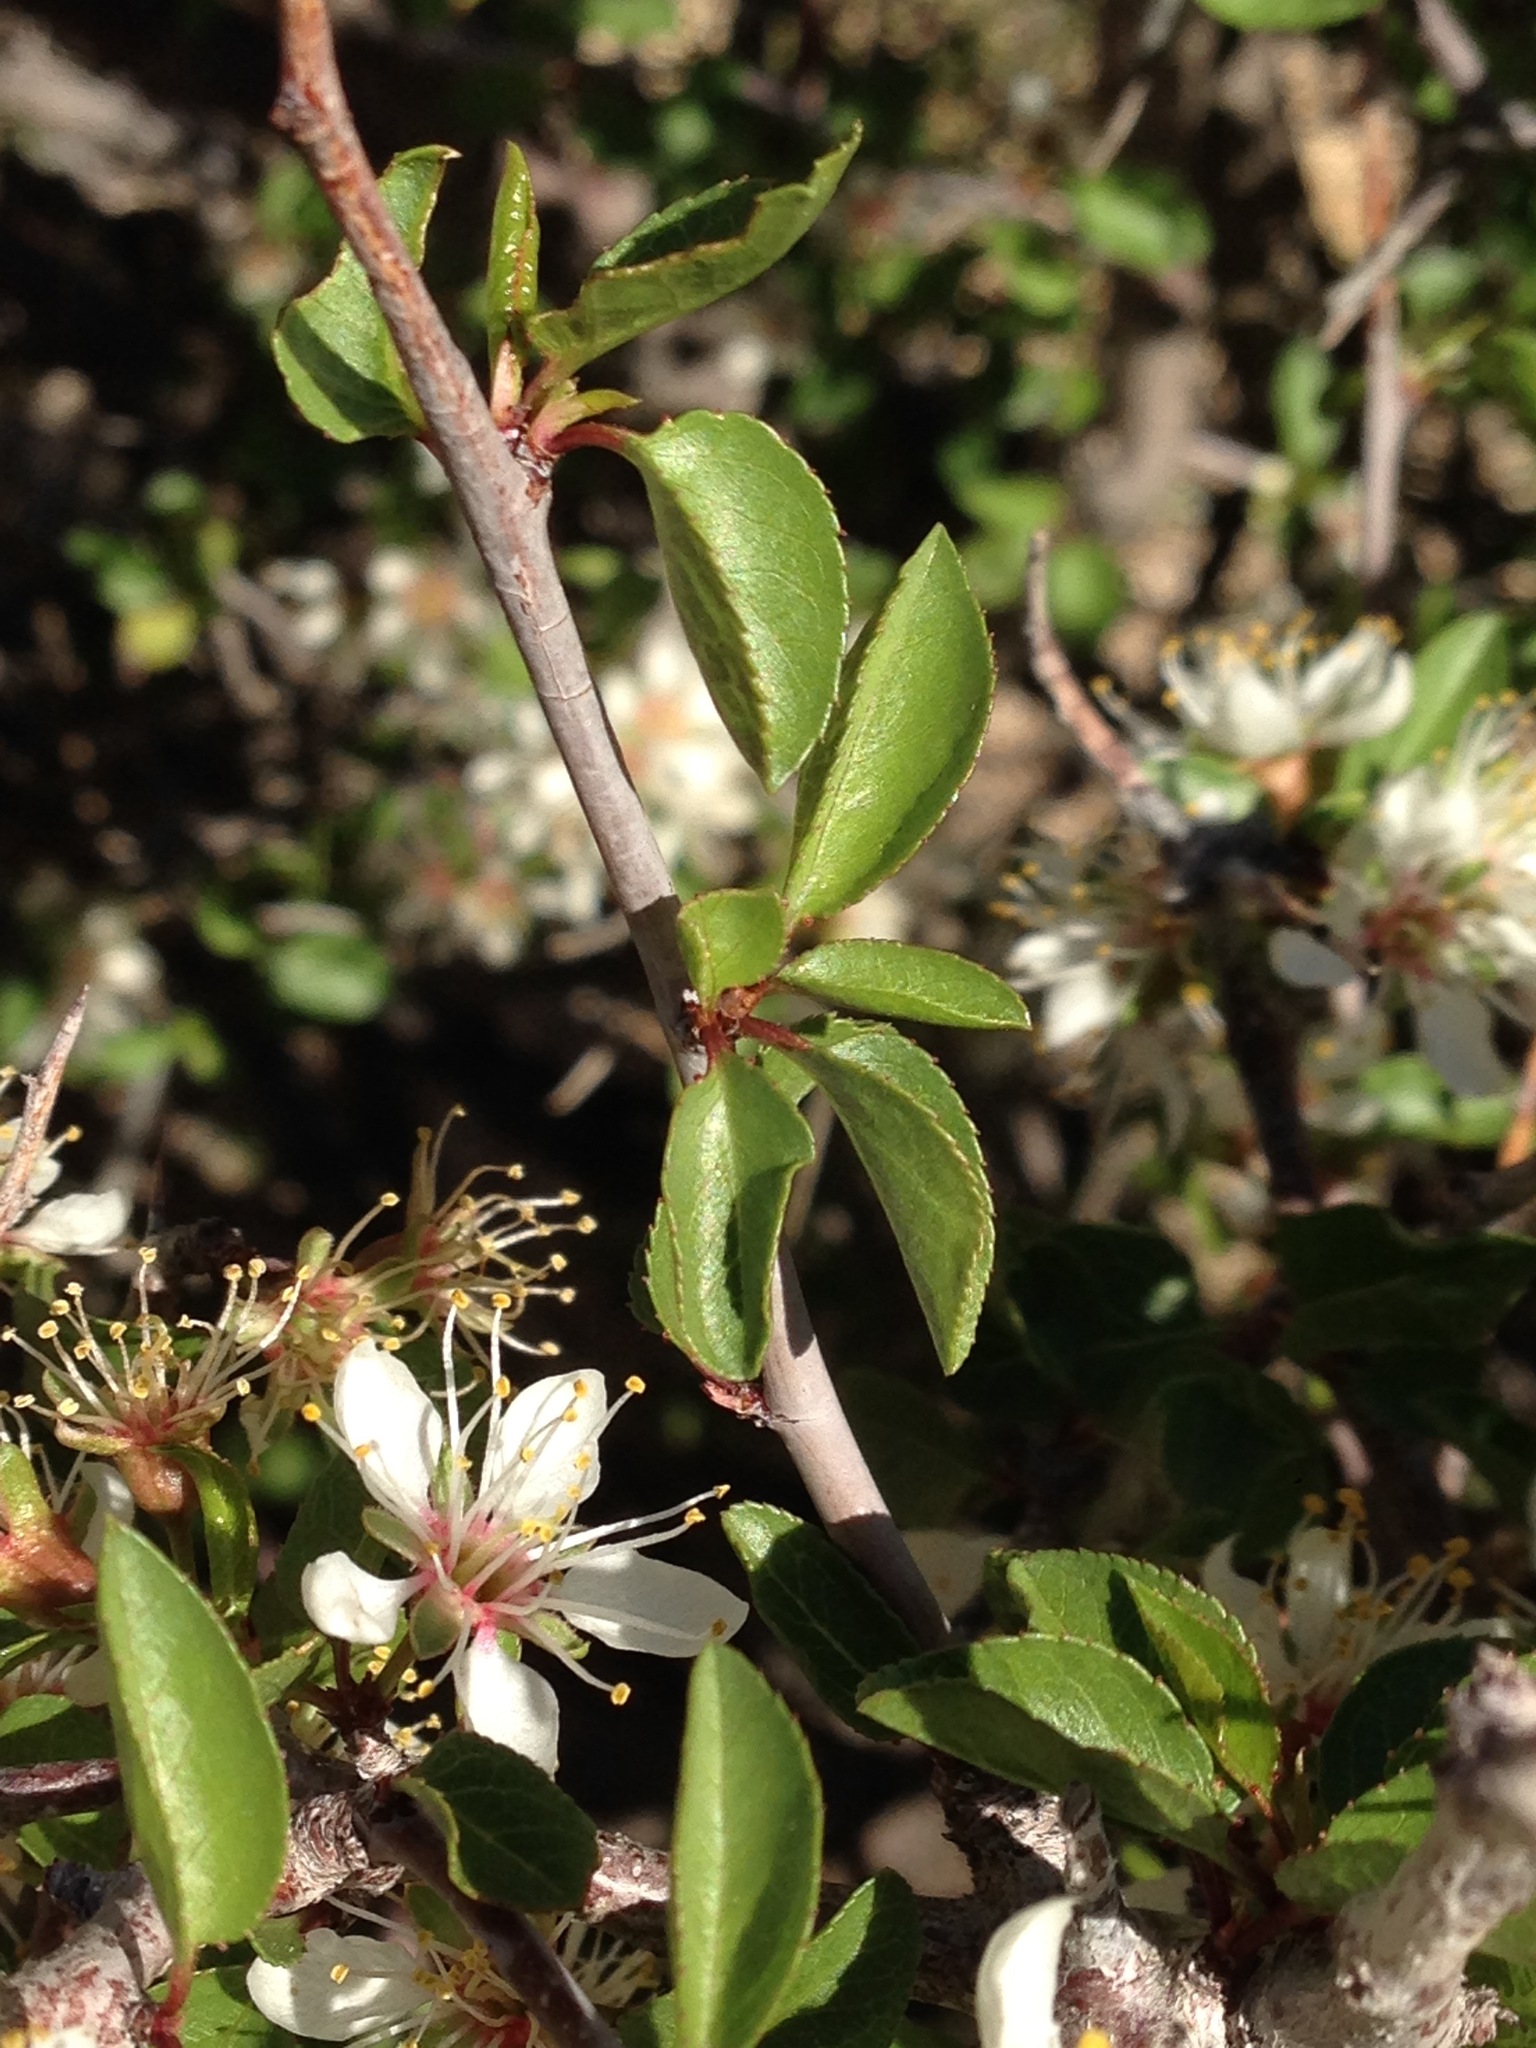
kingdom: Plantae
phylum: Tracheophyta
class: Magnoliopsida
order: Rosales
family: Rosaceae
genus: Prunus
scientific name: Prunus fremontii
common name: Desert apricot
